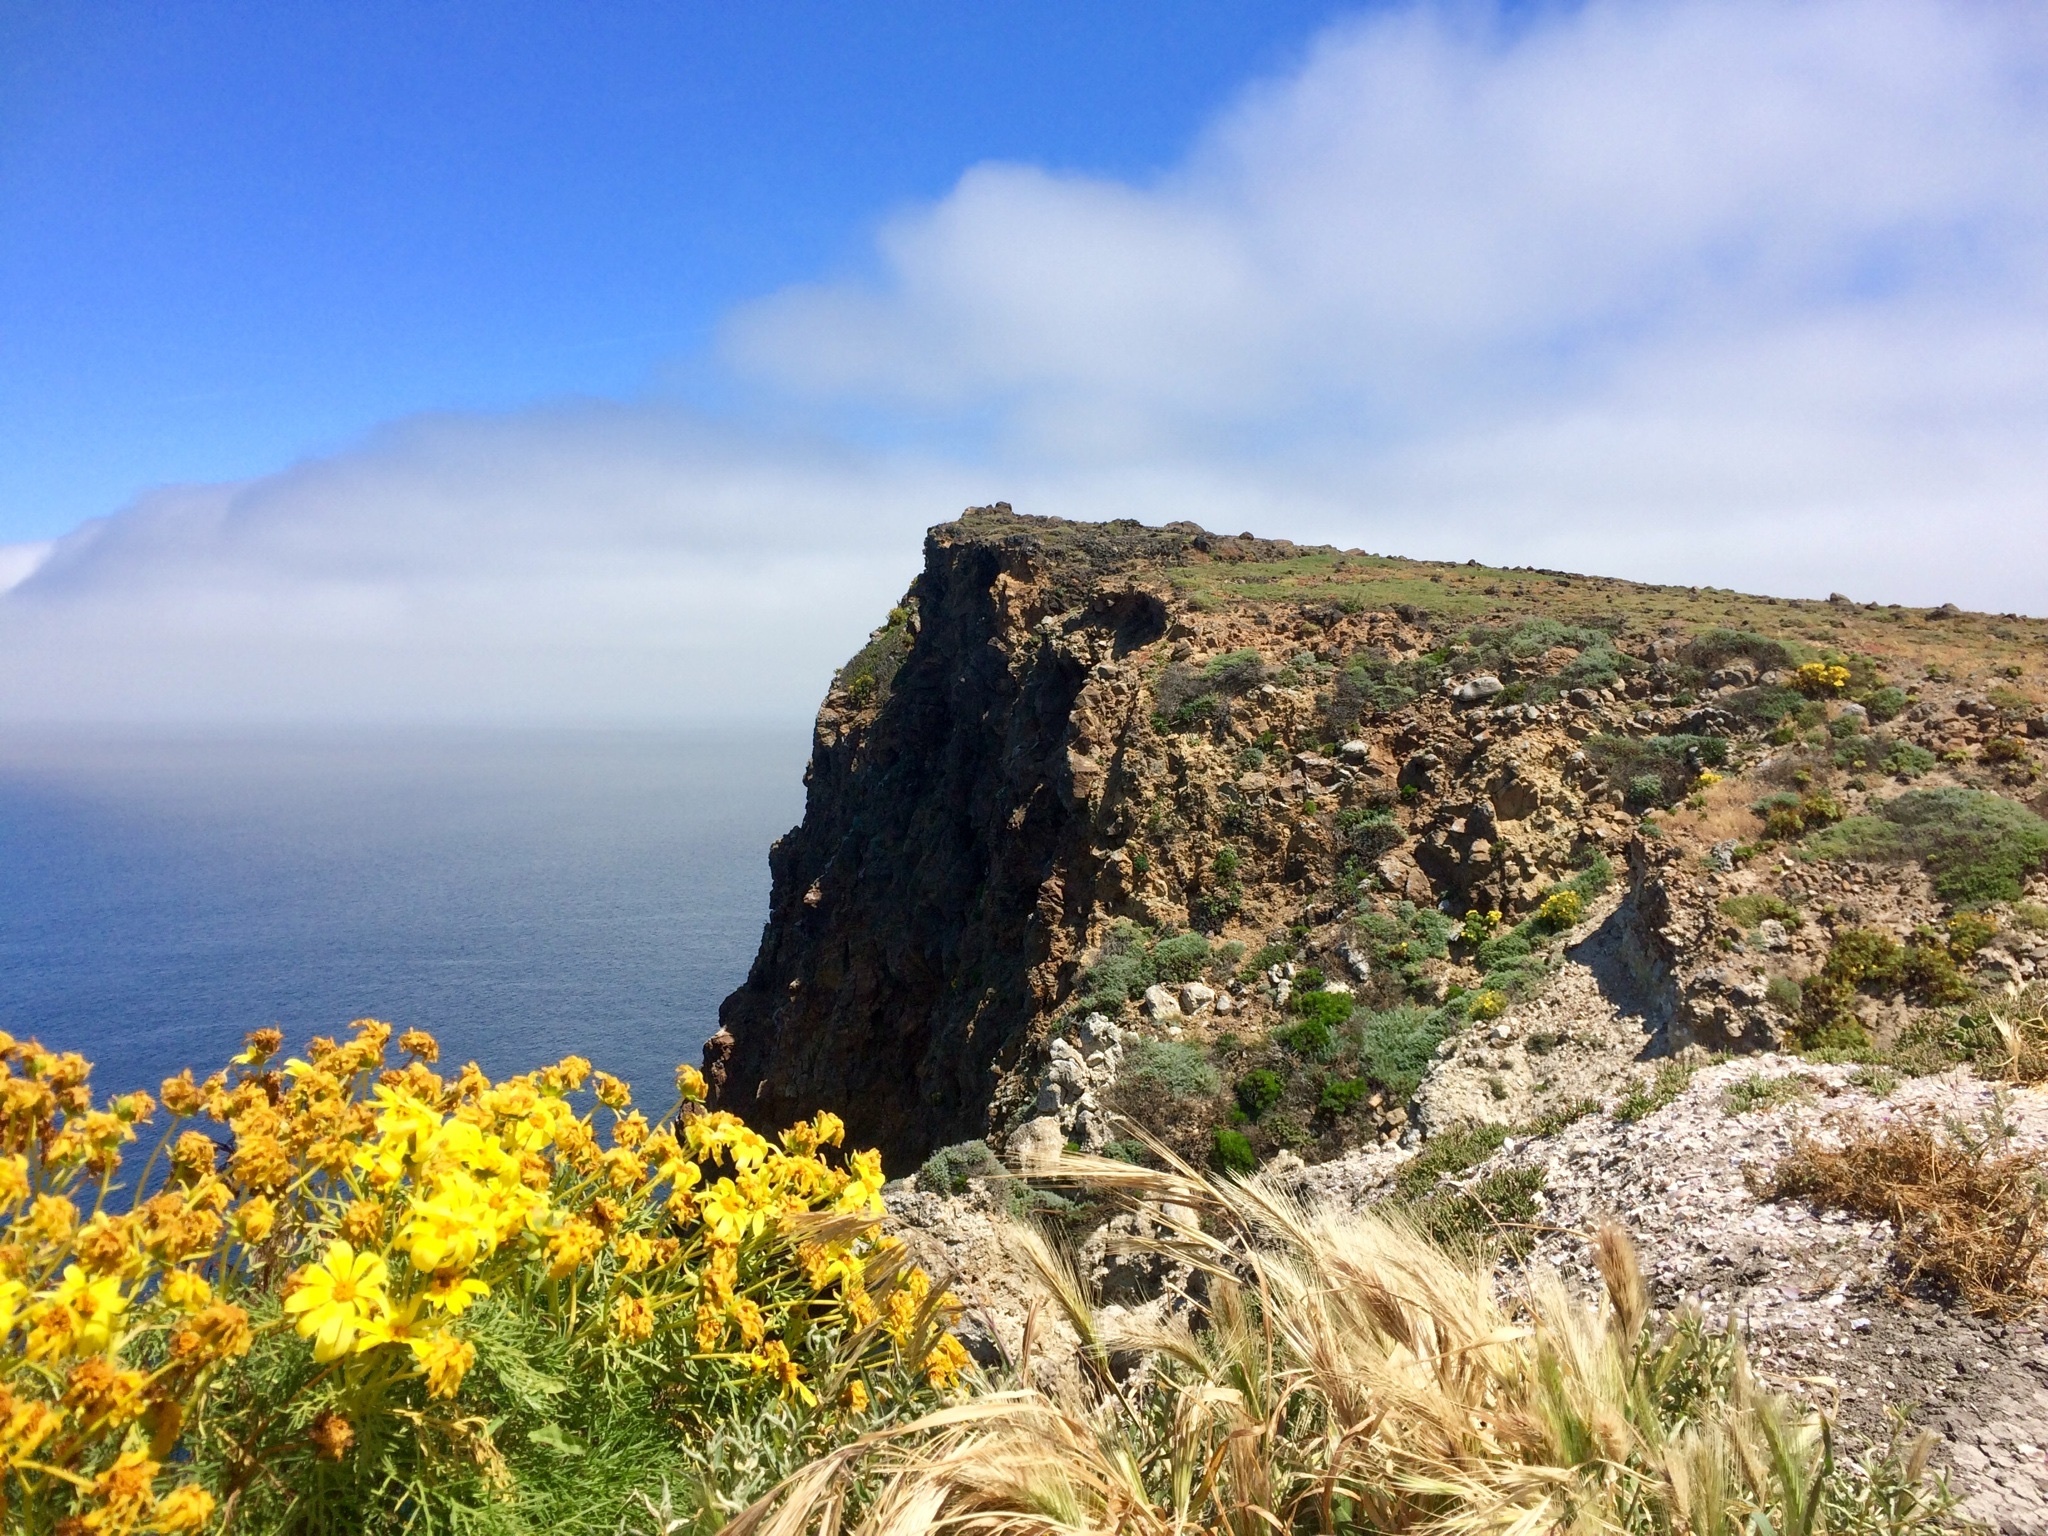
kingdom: Plantae
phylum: Tracheophyta
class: Magnoliopsida
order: Asterales
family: Asteraceae
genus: Coreopsis
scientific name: Coreopsis gigantea
